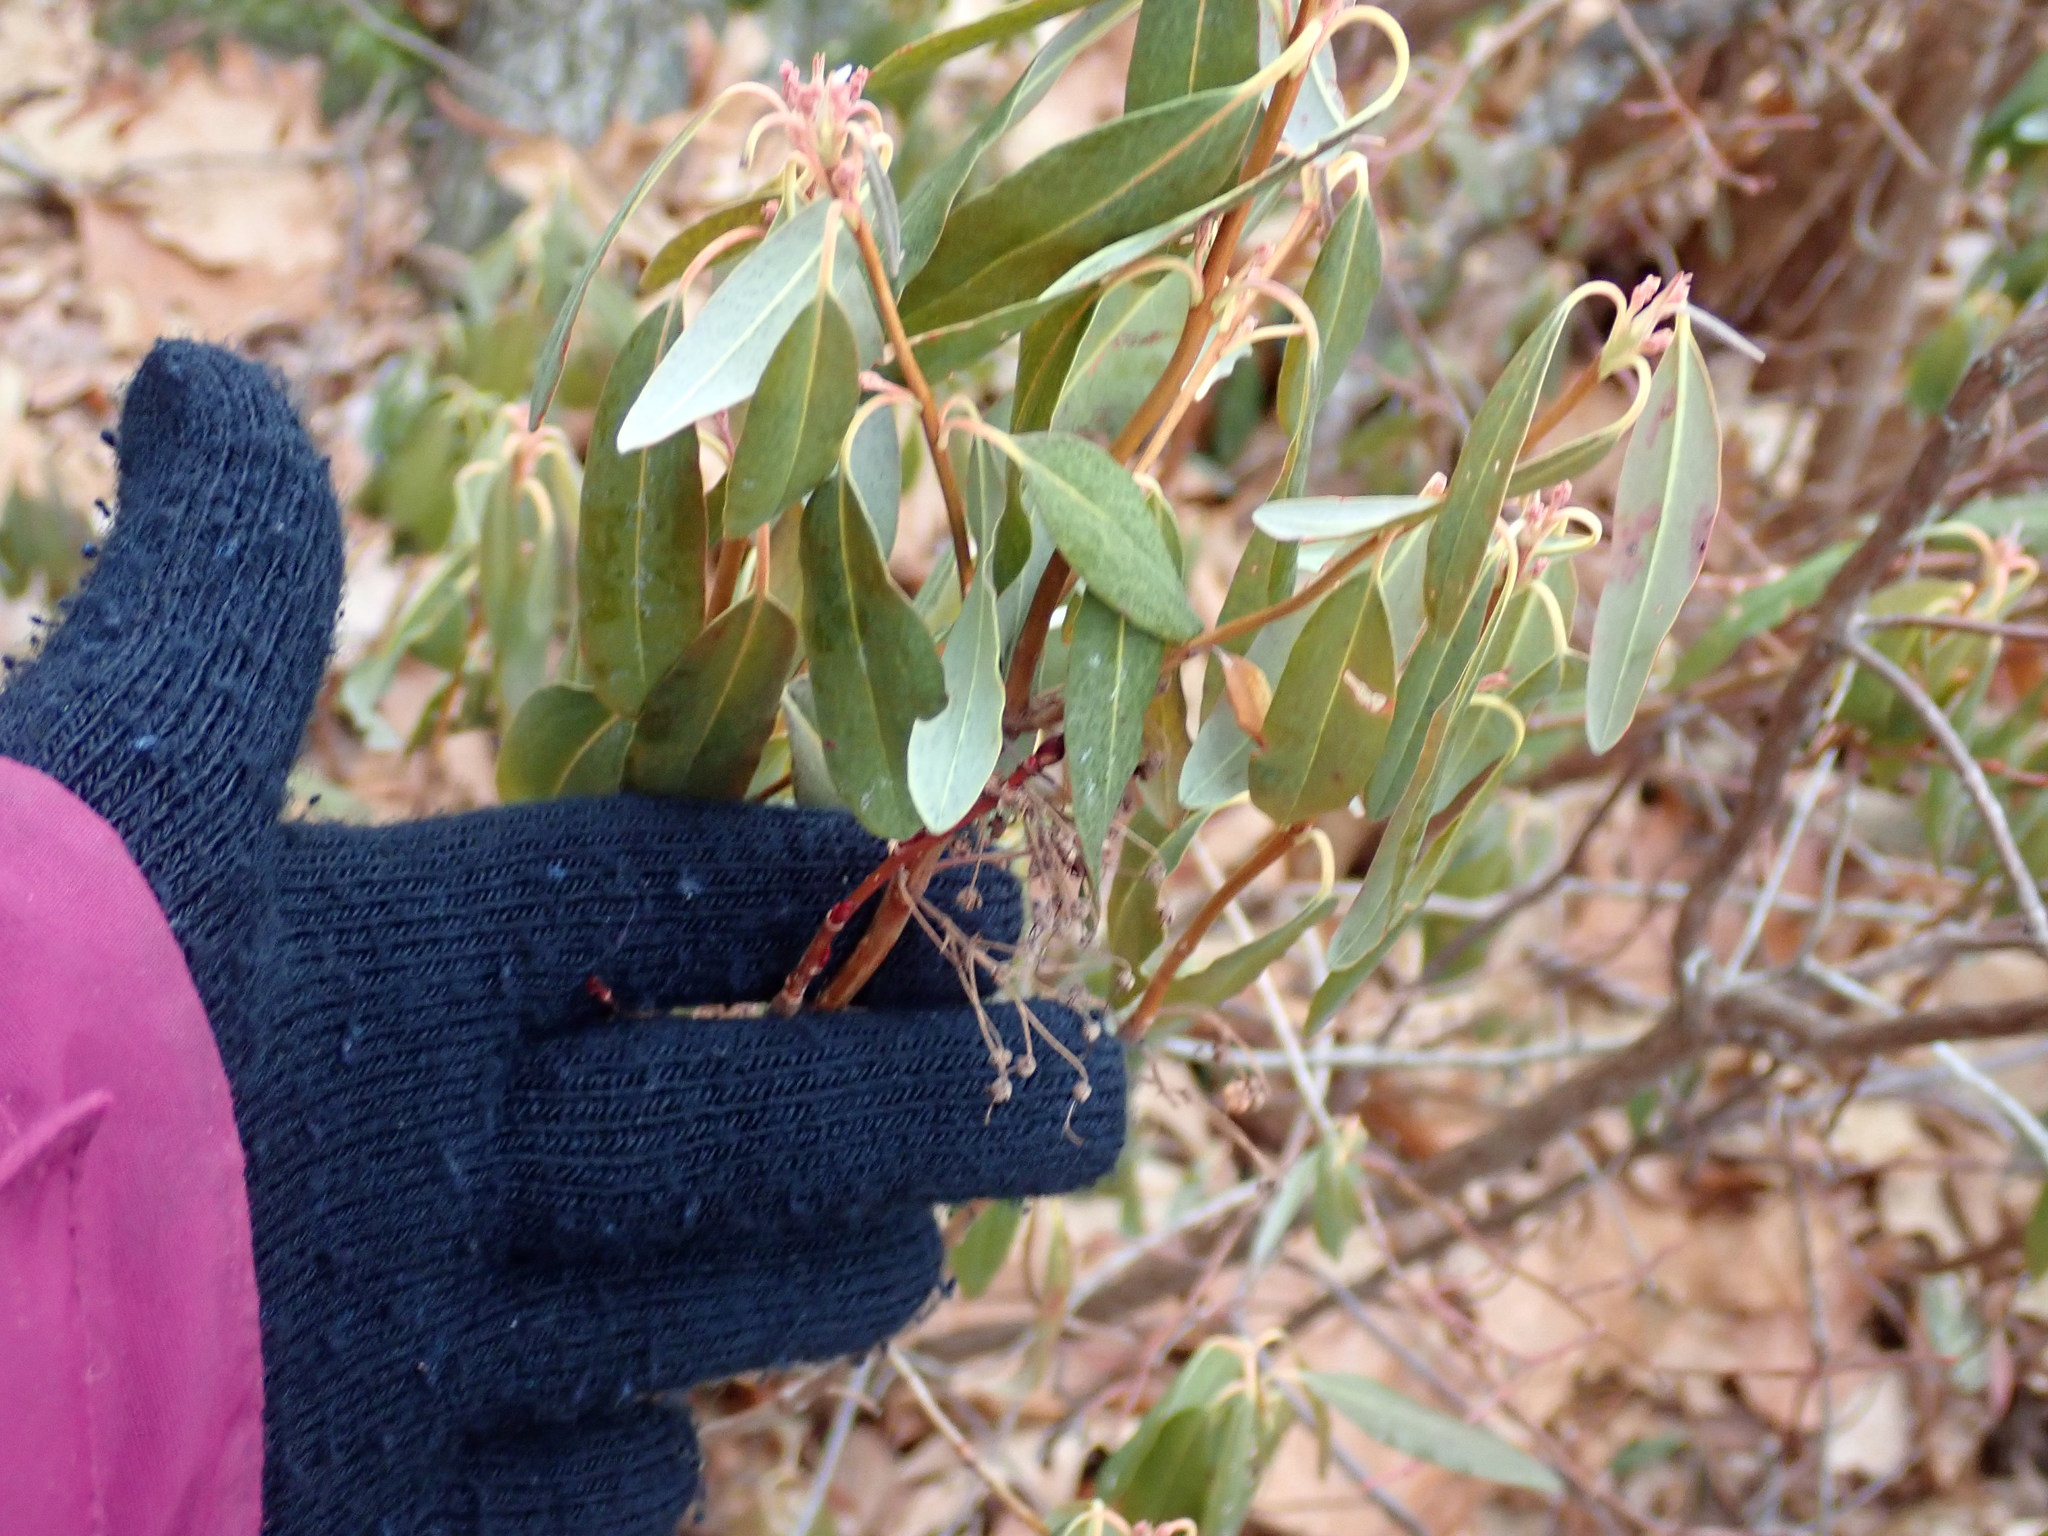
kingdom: Plantae
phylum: Tracheophyta
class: Magnoliopsida
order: Ericales
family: Ericaceae
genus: Kalmia
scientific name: Kalmia angustifolia
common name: Sheep-laurel
